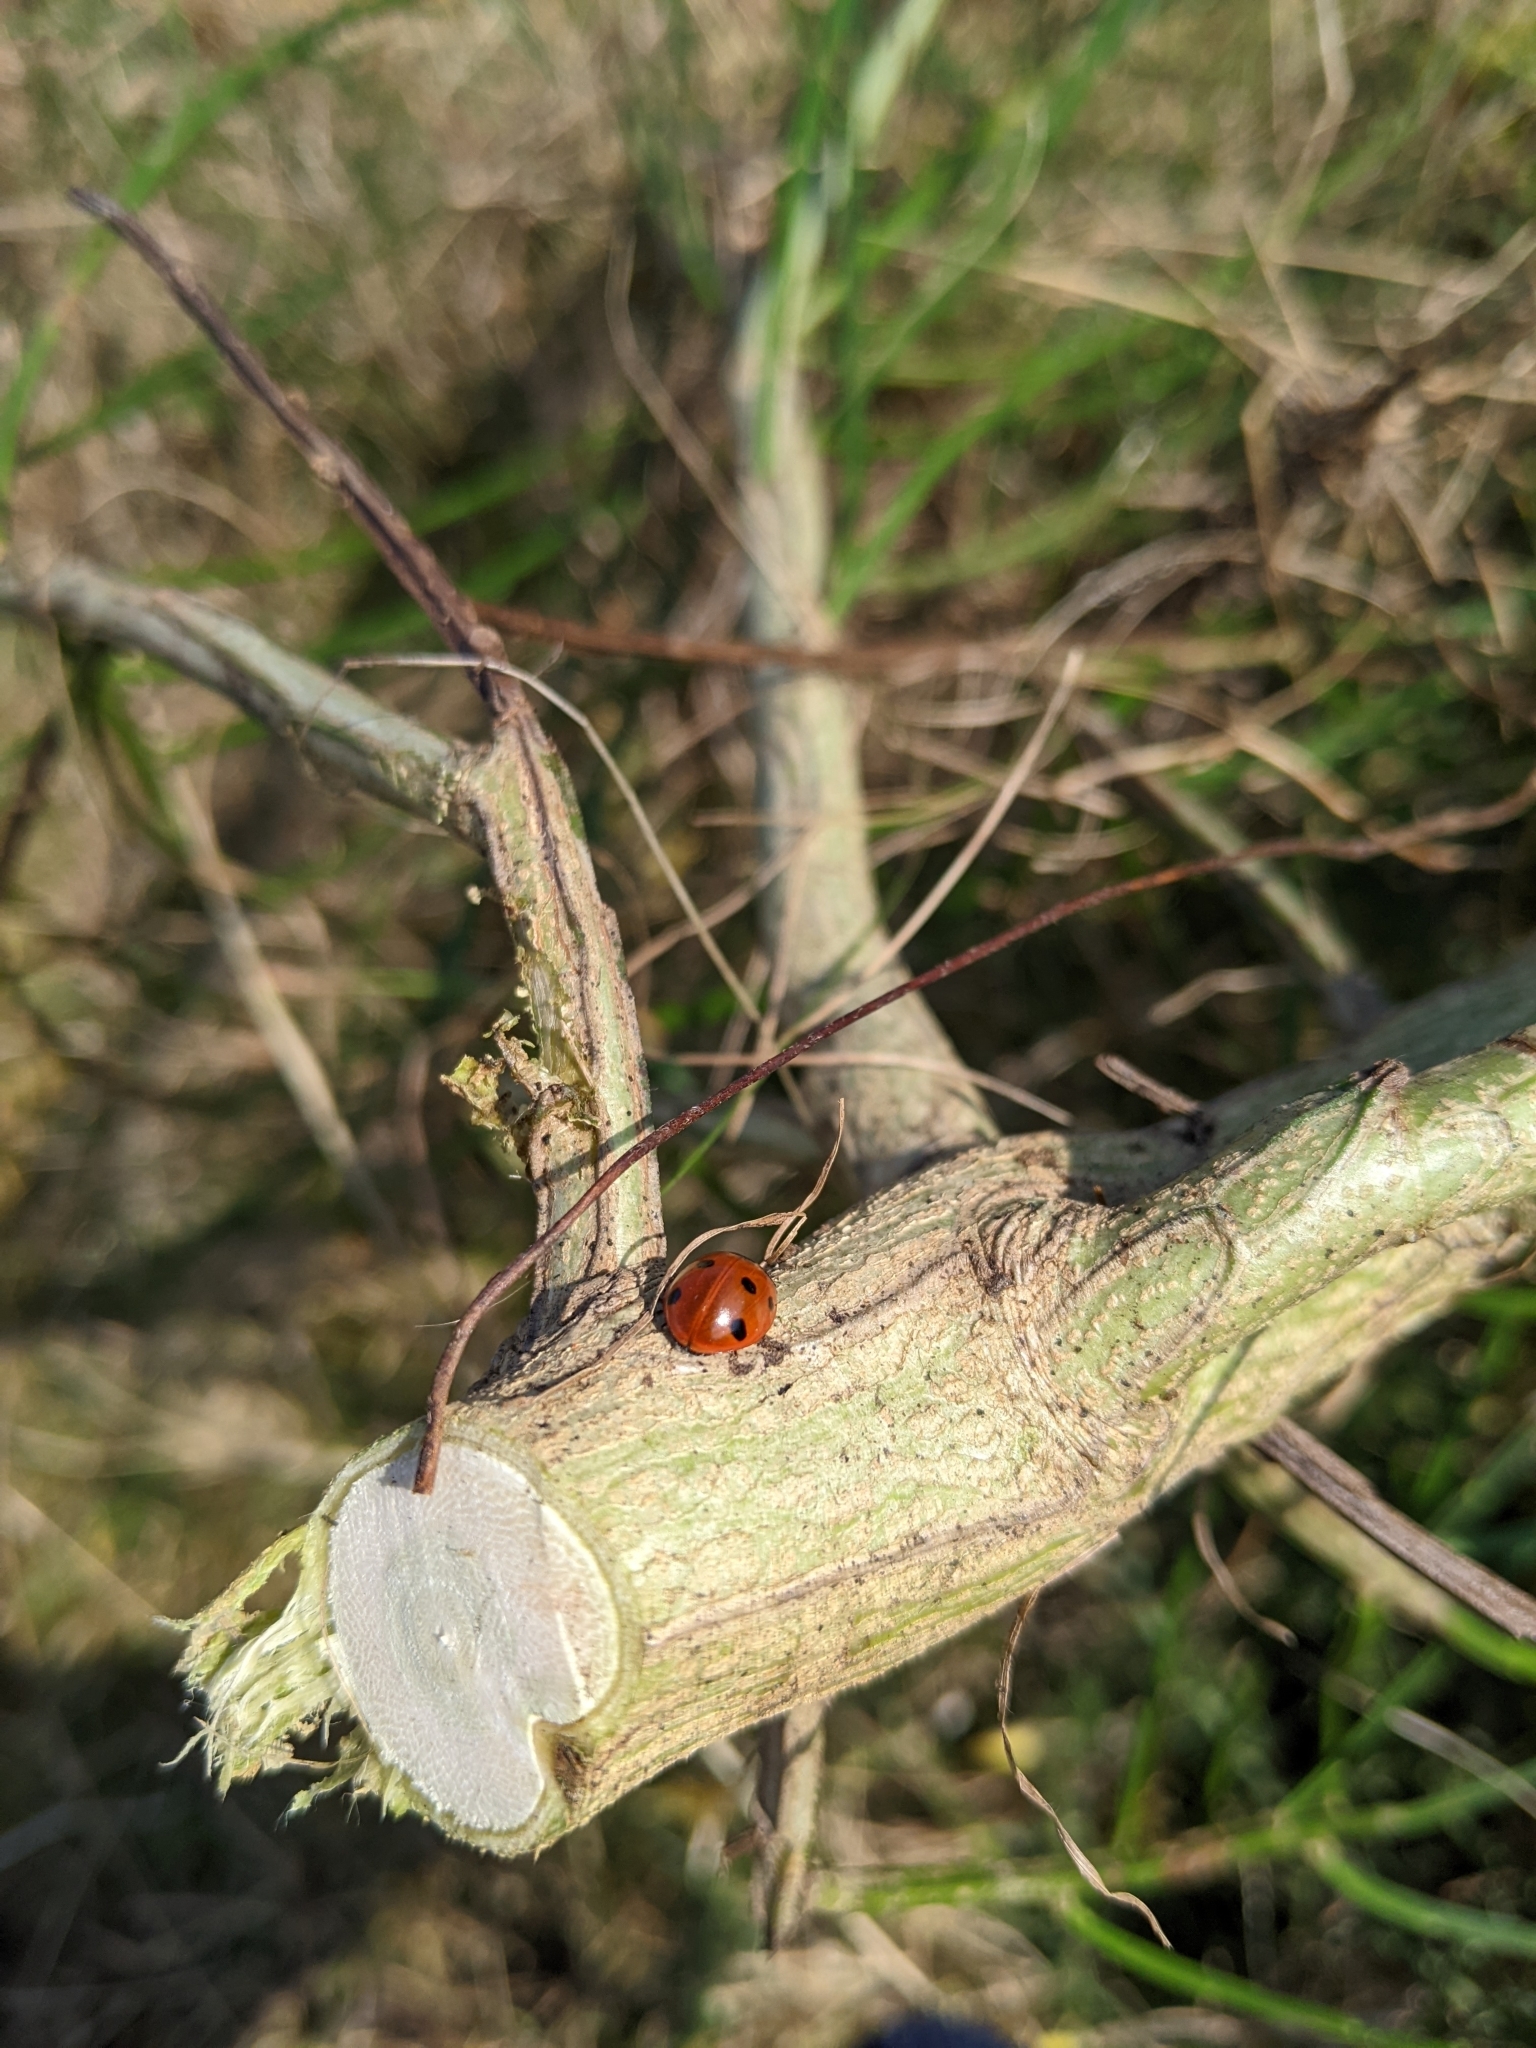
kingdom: Animalia
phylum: Arthropoda
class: Insecta
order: Coleoptera
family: Coccinellidae
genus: Coccinella
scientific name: Coccinella septempunctata
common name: Sevenspotted lady beetle
